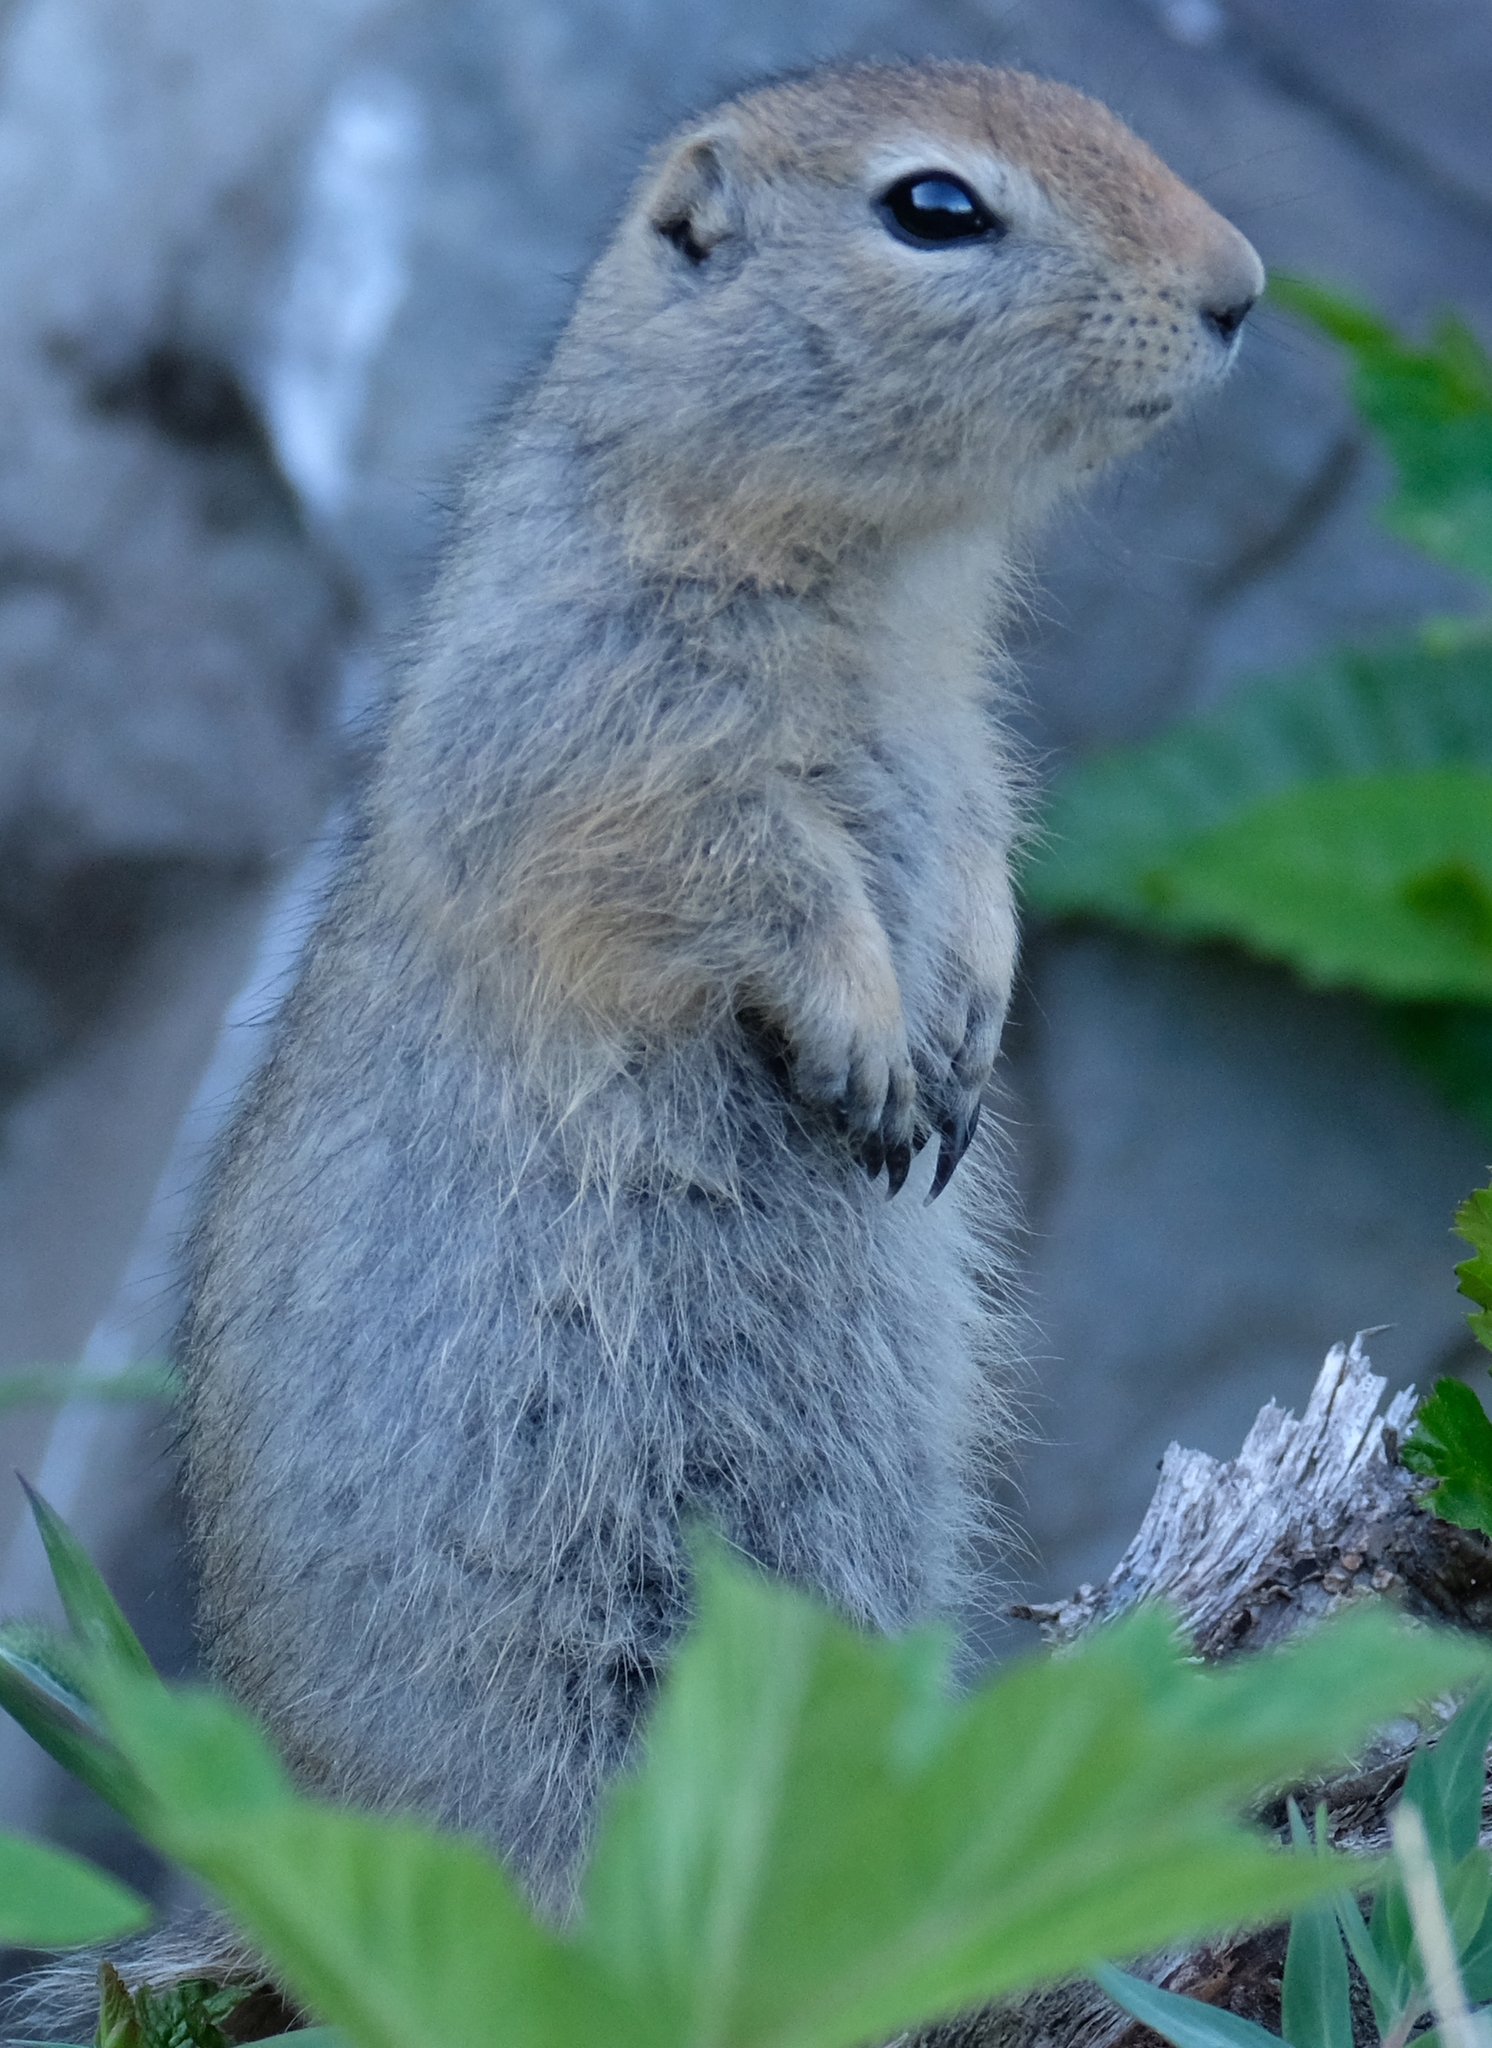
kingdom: Animalia
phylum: Chordata
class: Mammalia
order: Rodentia
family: Sciuridae
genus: Urocitellus
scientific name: Urocitellus parryii
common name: Arctic ground squirrel
